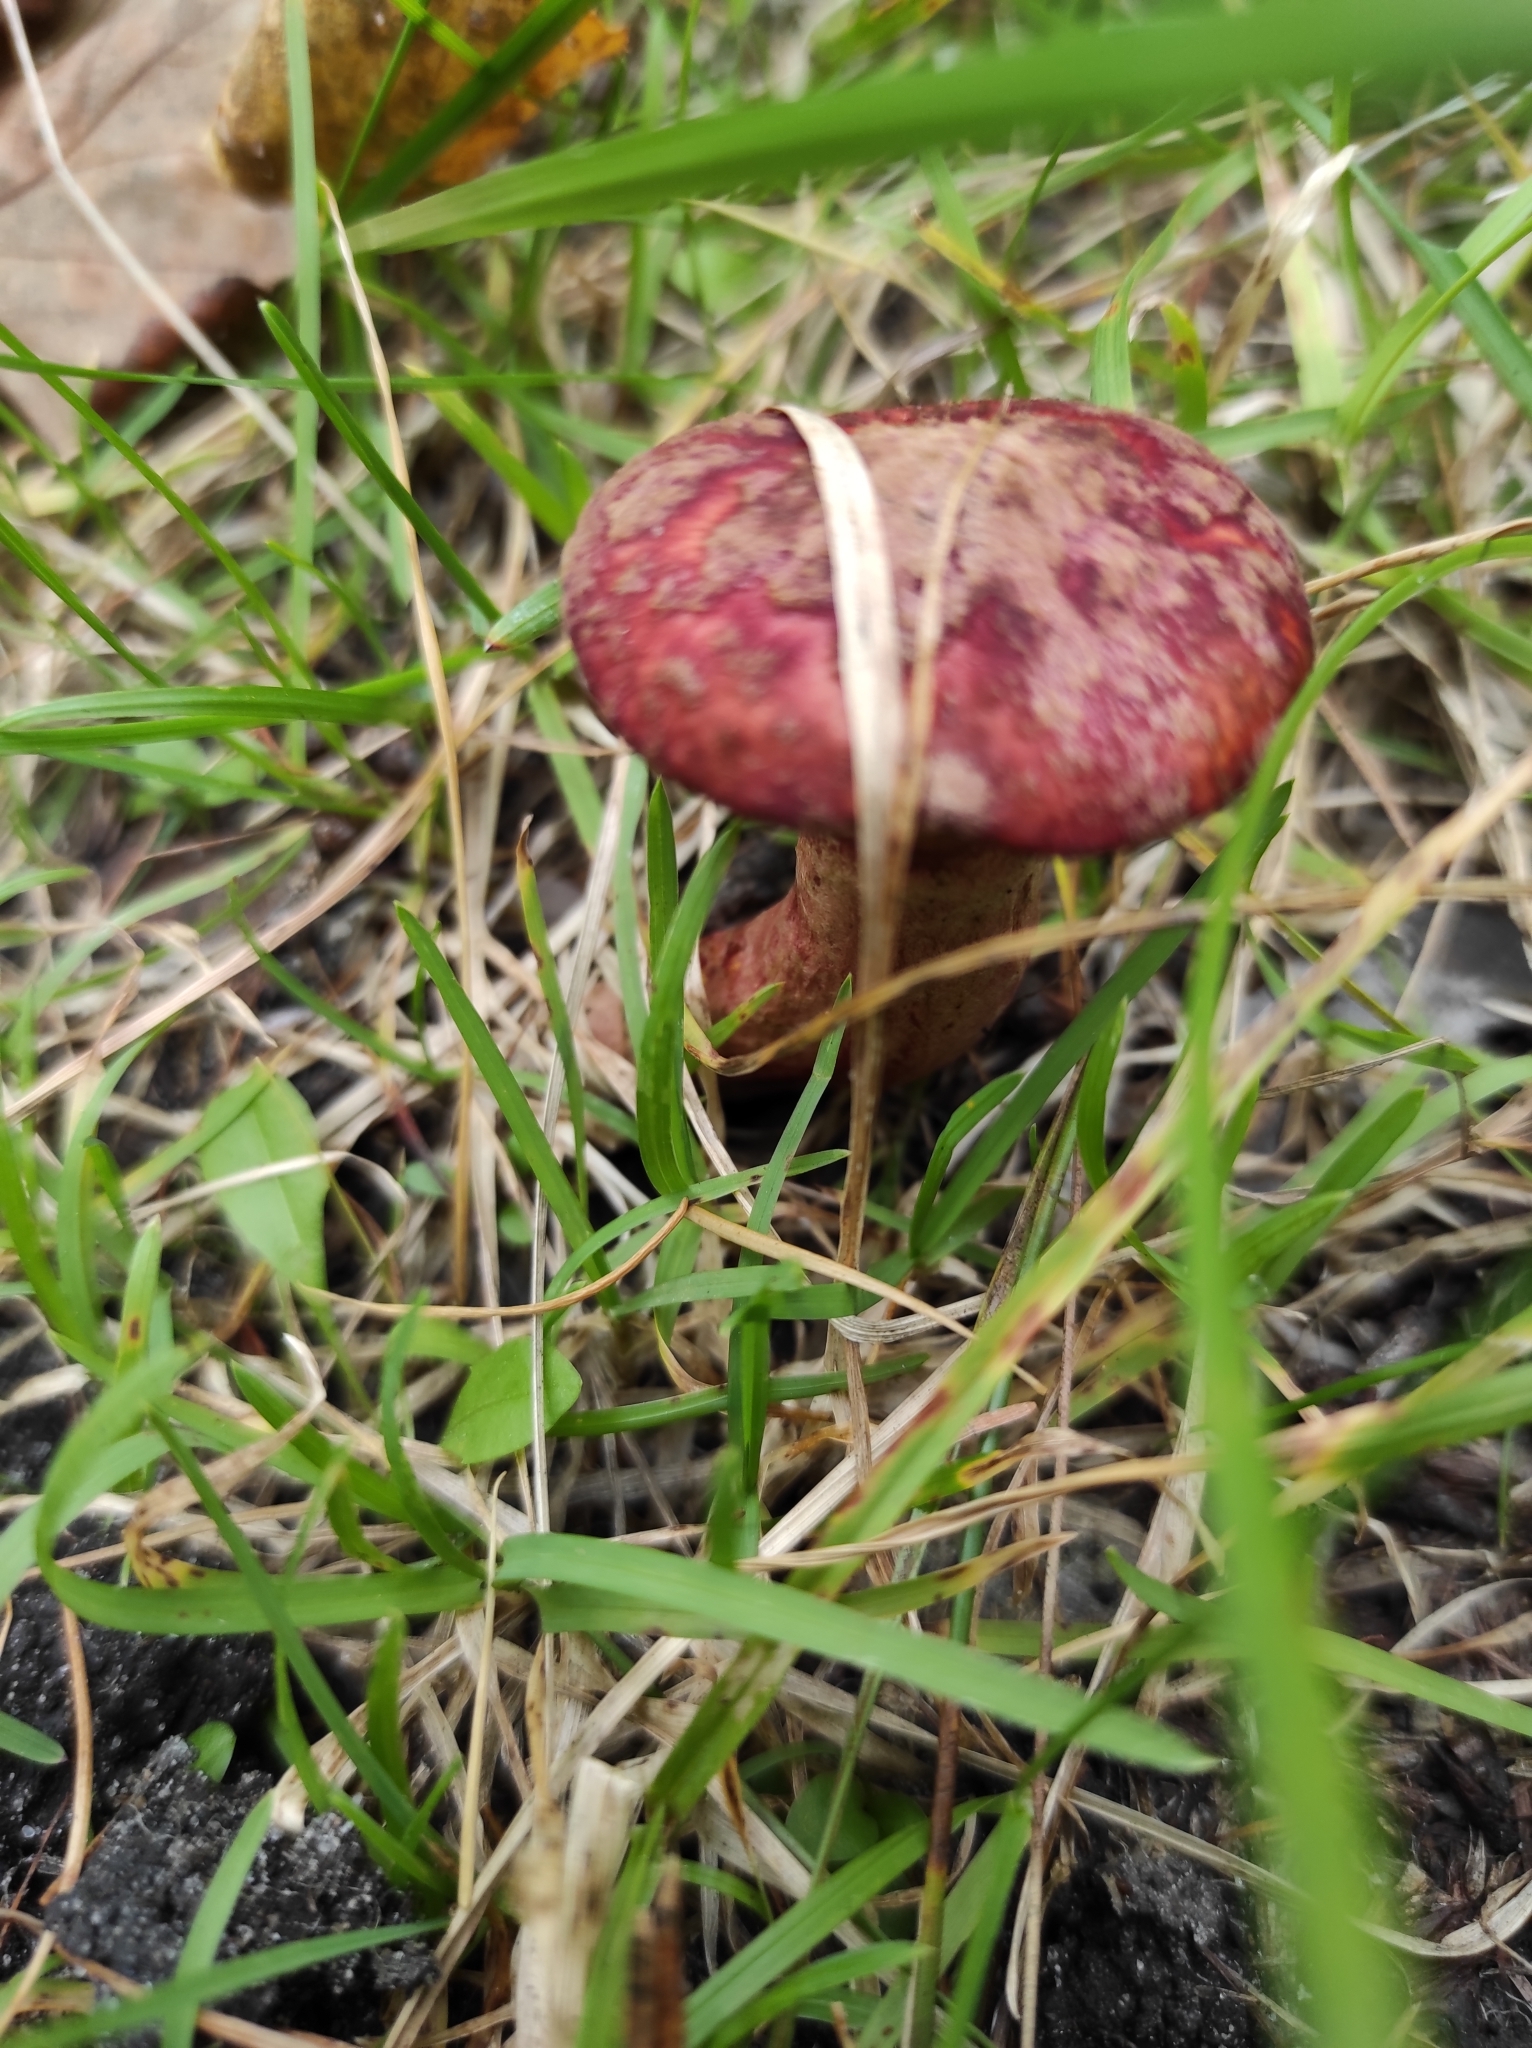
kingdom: Fungi
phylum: Basidiomycota
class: Agaricomycetes
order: Boletales
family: Suillaceae
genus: Boletinus
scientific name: Boletinus asiaticus
